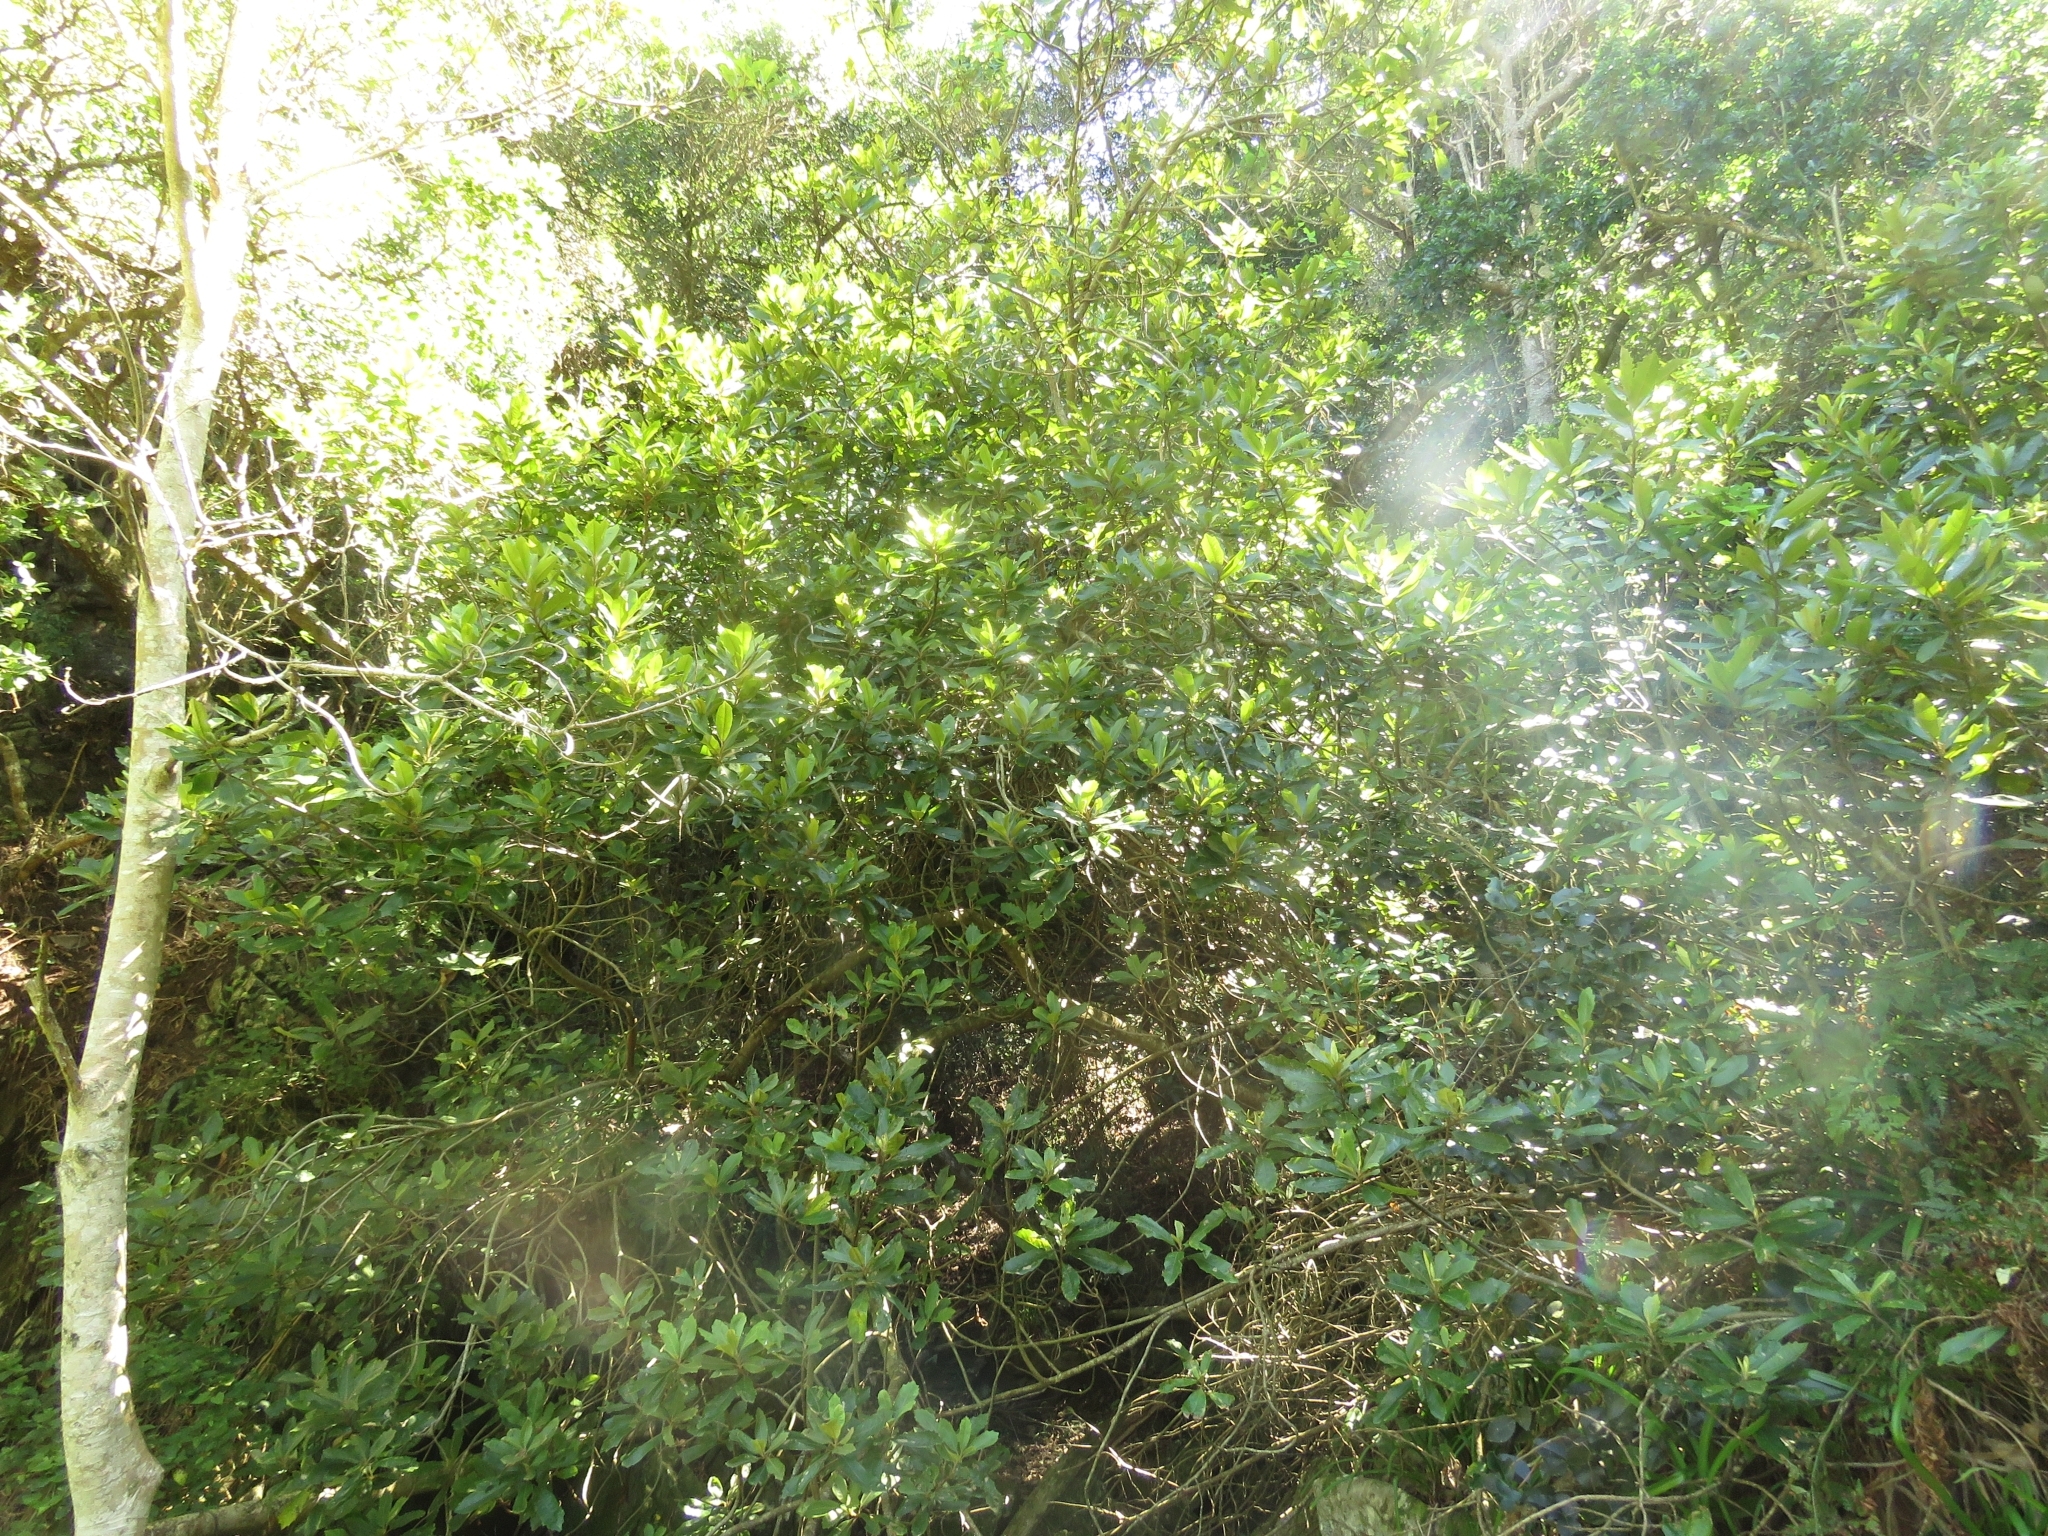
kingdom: Plantae
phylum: Tracheophyta
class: Magnoliopsida
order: Asterales
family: Asteraceae
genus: Brachylaena
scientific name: Brachylaena glabra
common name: Malabar silver-oak
